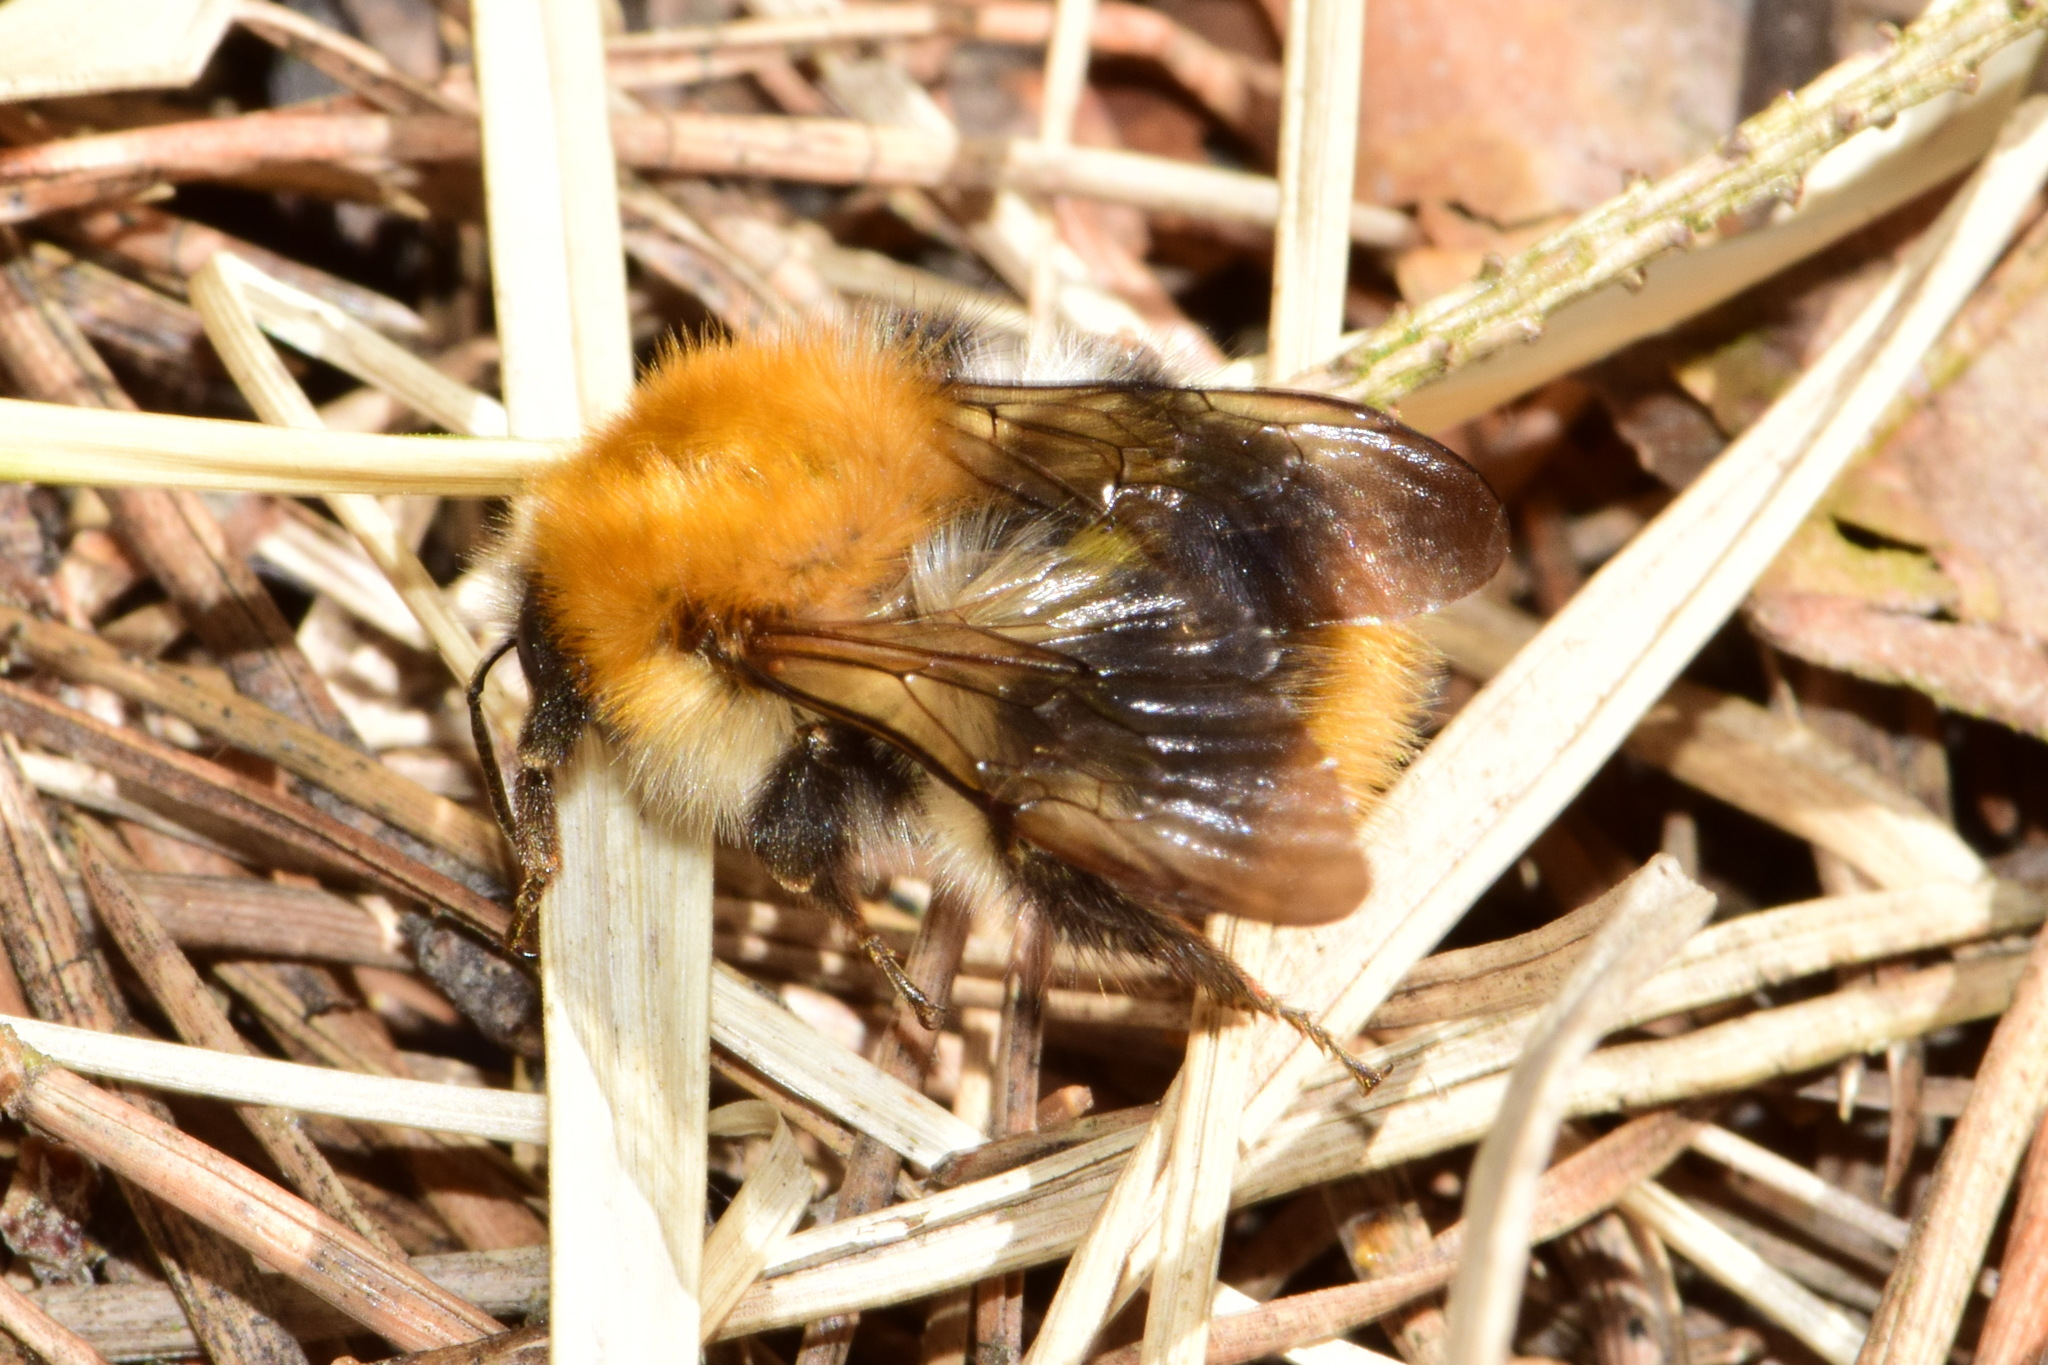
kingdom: Animalia
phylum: Arthropoda
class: Insecta
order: Hymenoptera
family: Apidae
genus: Bombus
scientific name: Bombus pascuorum
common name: Common carder bee
